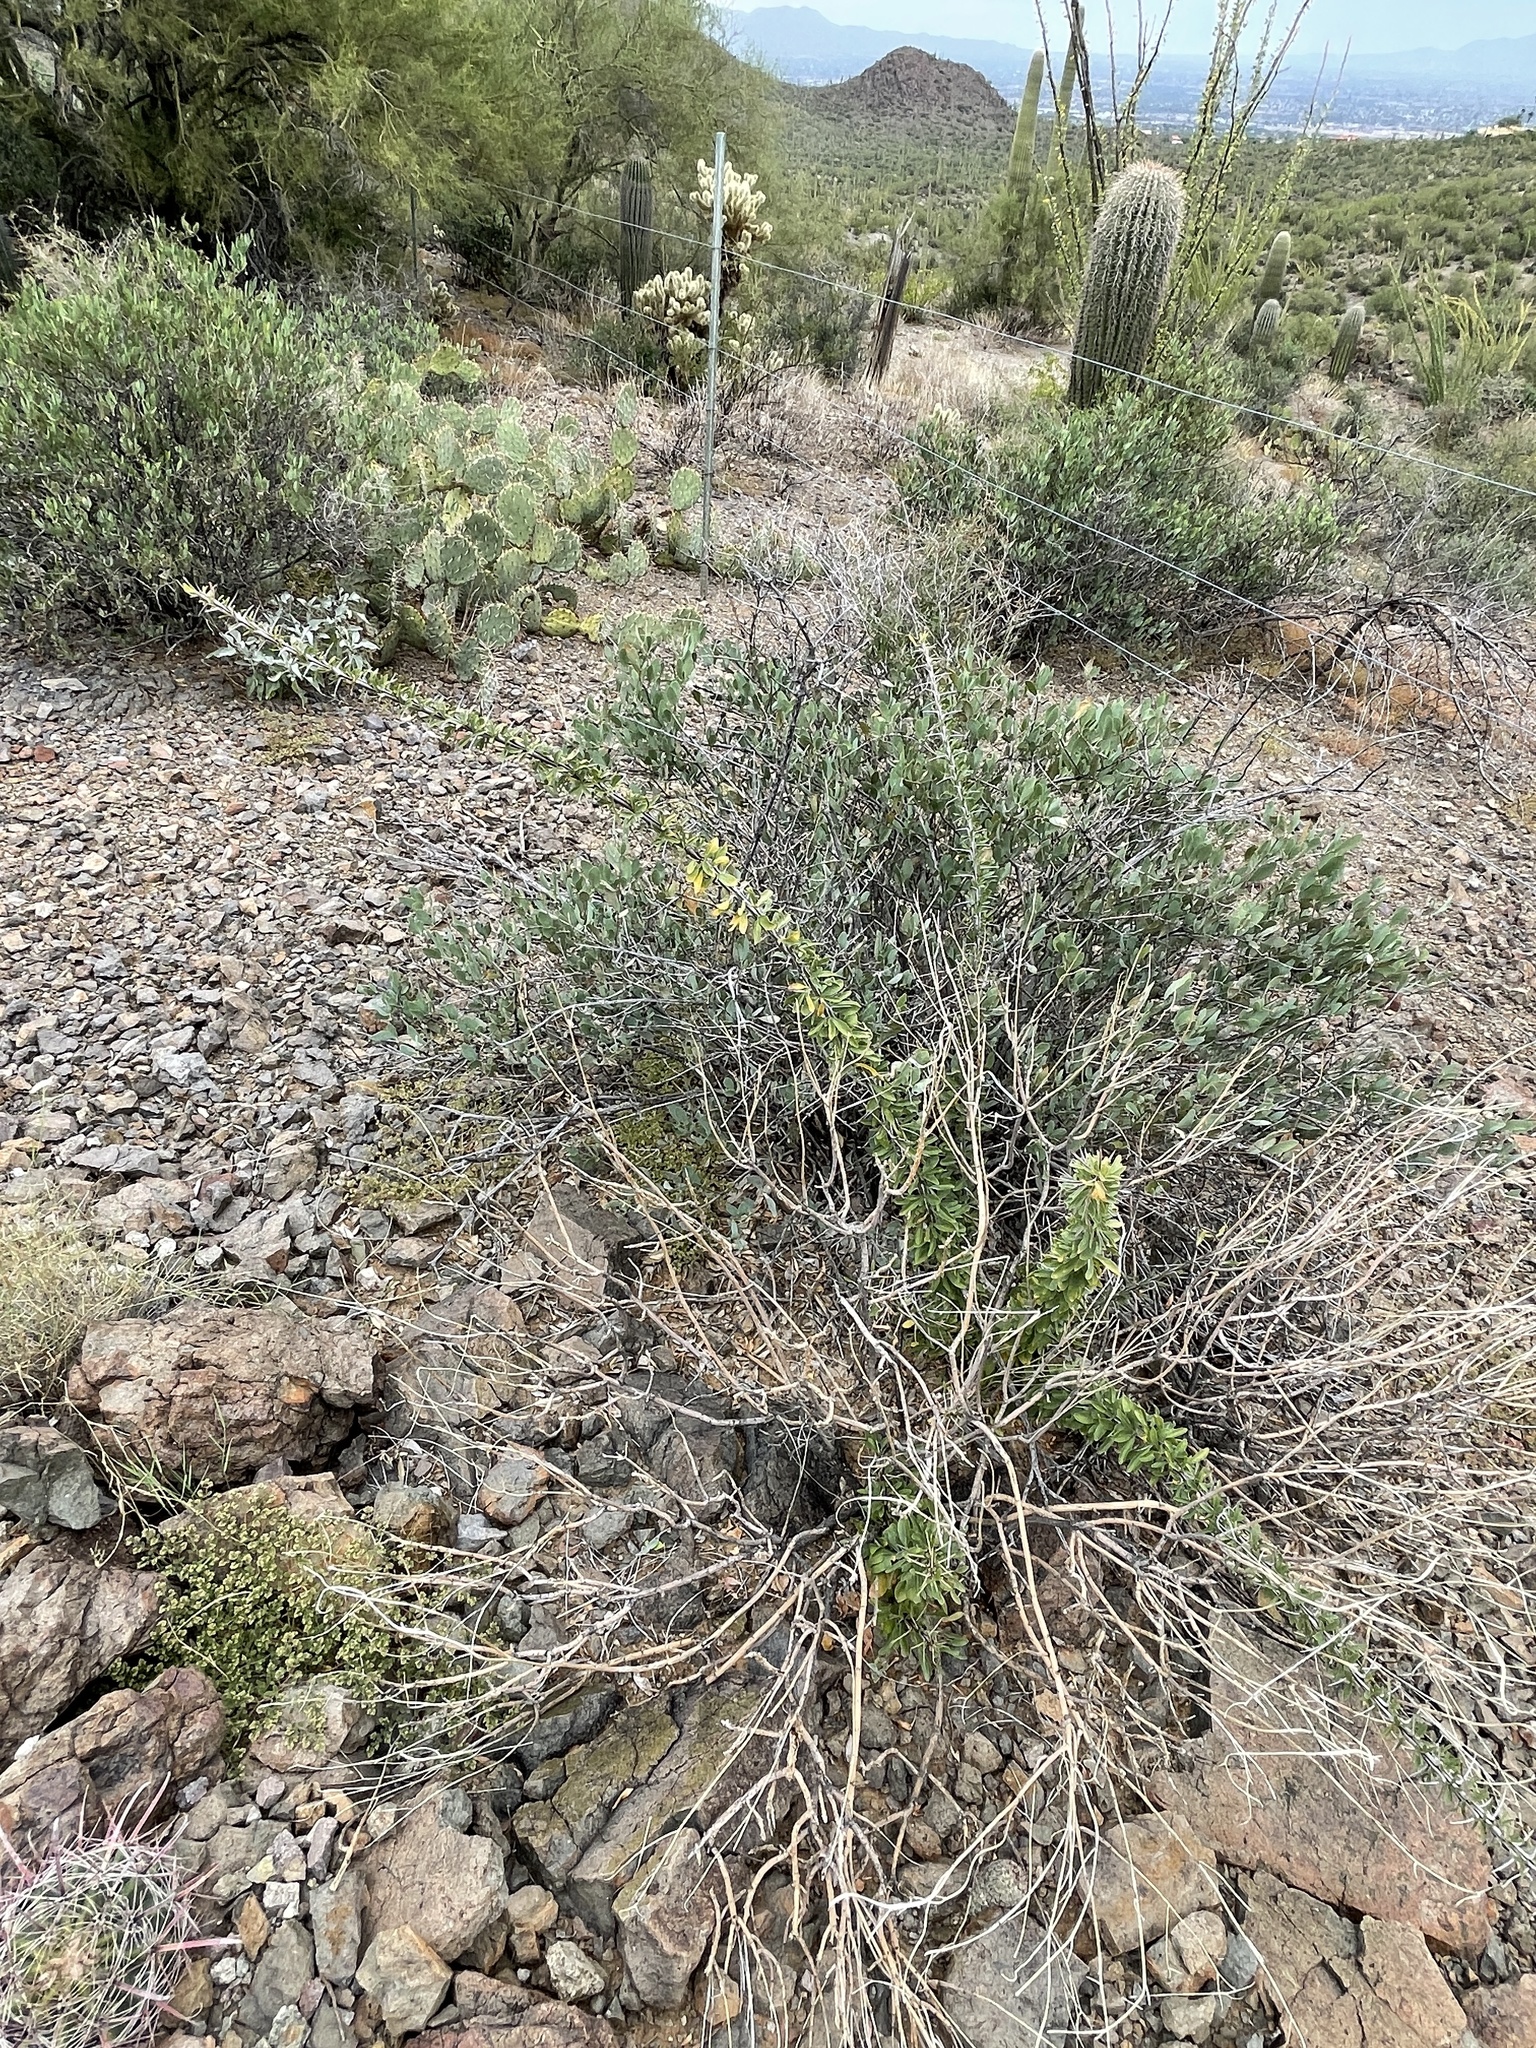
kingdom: Plantae
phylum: Tracheophyta
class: Magnoliopsida
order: Ericales
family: Fouquieriaceae
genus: Fouquieria
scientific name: Fouquieria splendens
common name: Vine-cactus
